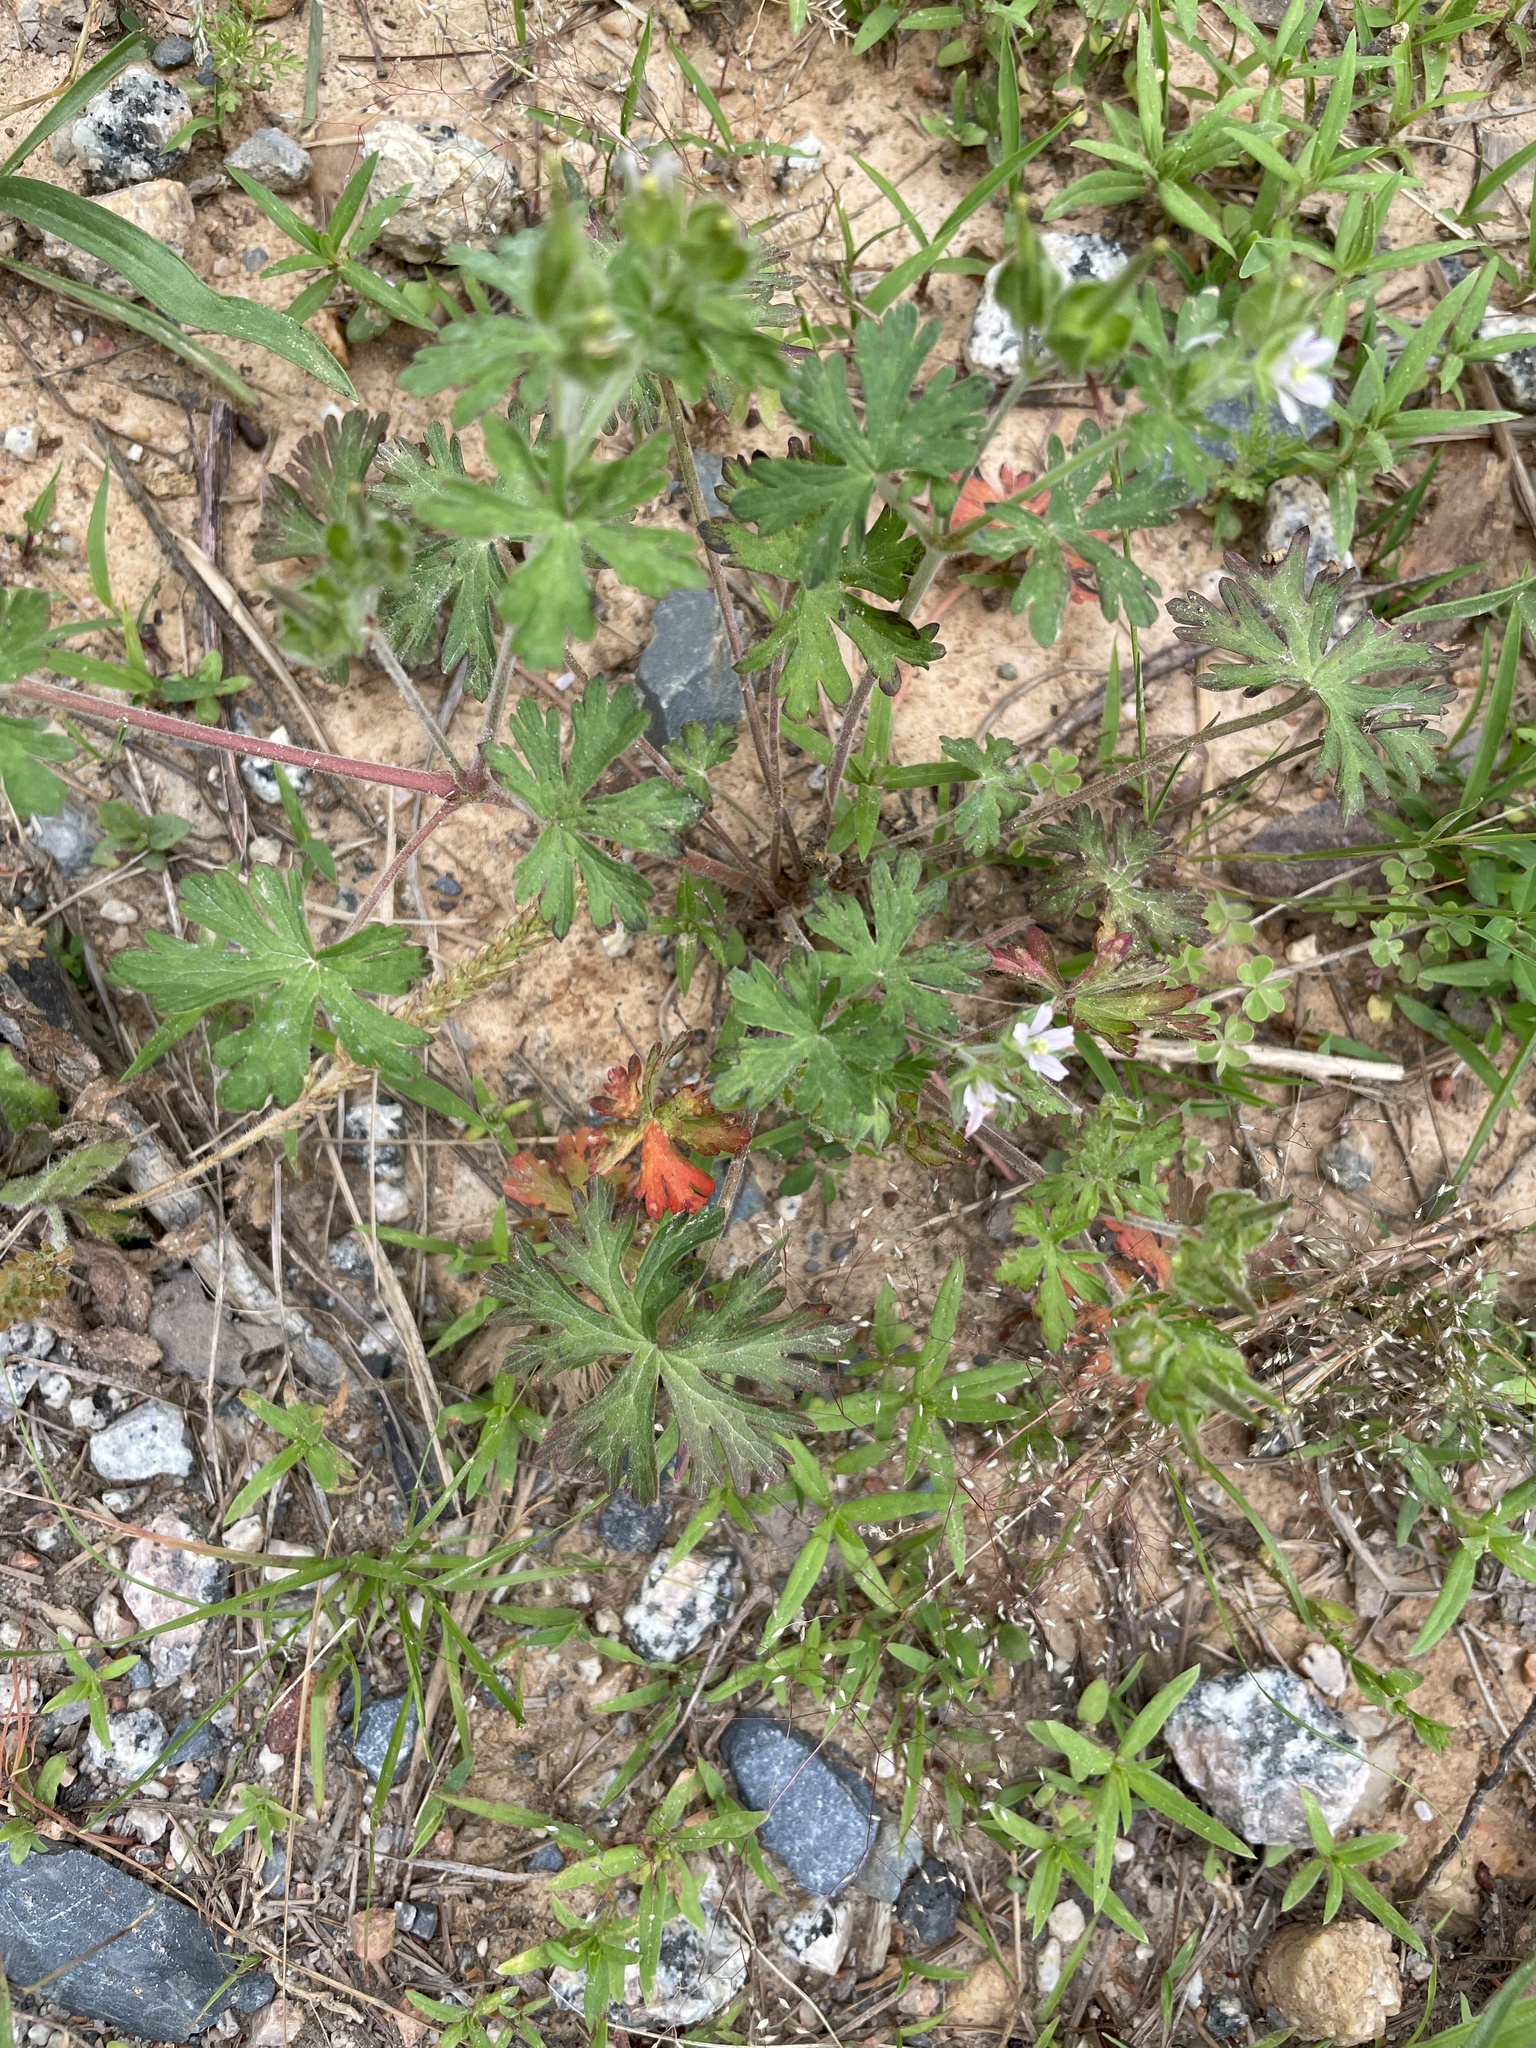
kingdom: Plantae
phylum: Tracheophyta
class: Magnoliopsida
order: Geraniales
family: Geraniaceae
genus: Geranium
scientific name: Geranium carolinianum
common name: Carolina crane's-bill
